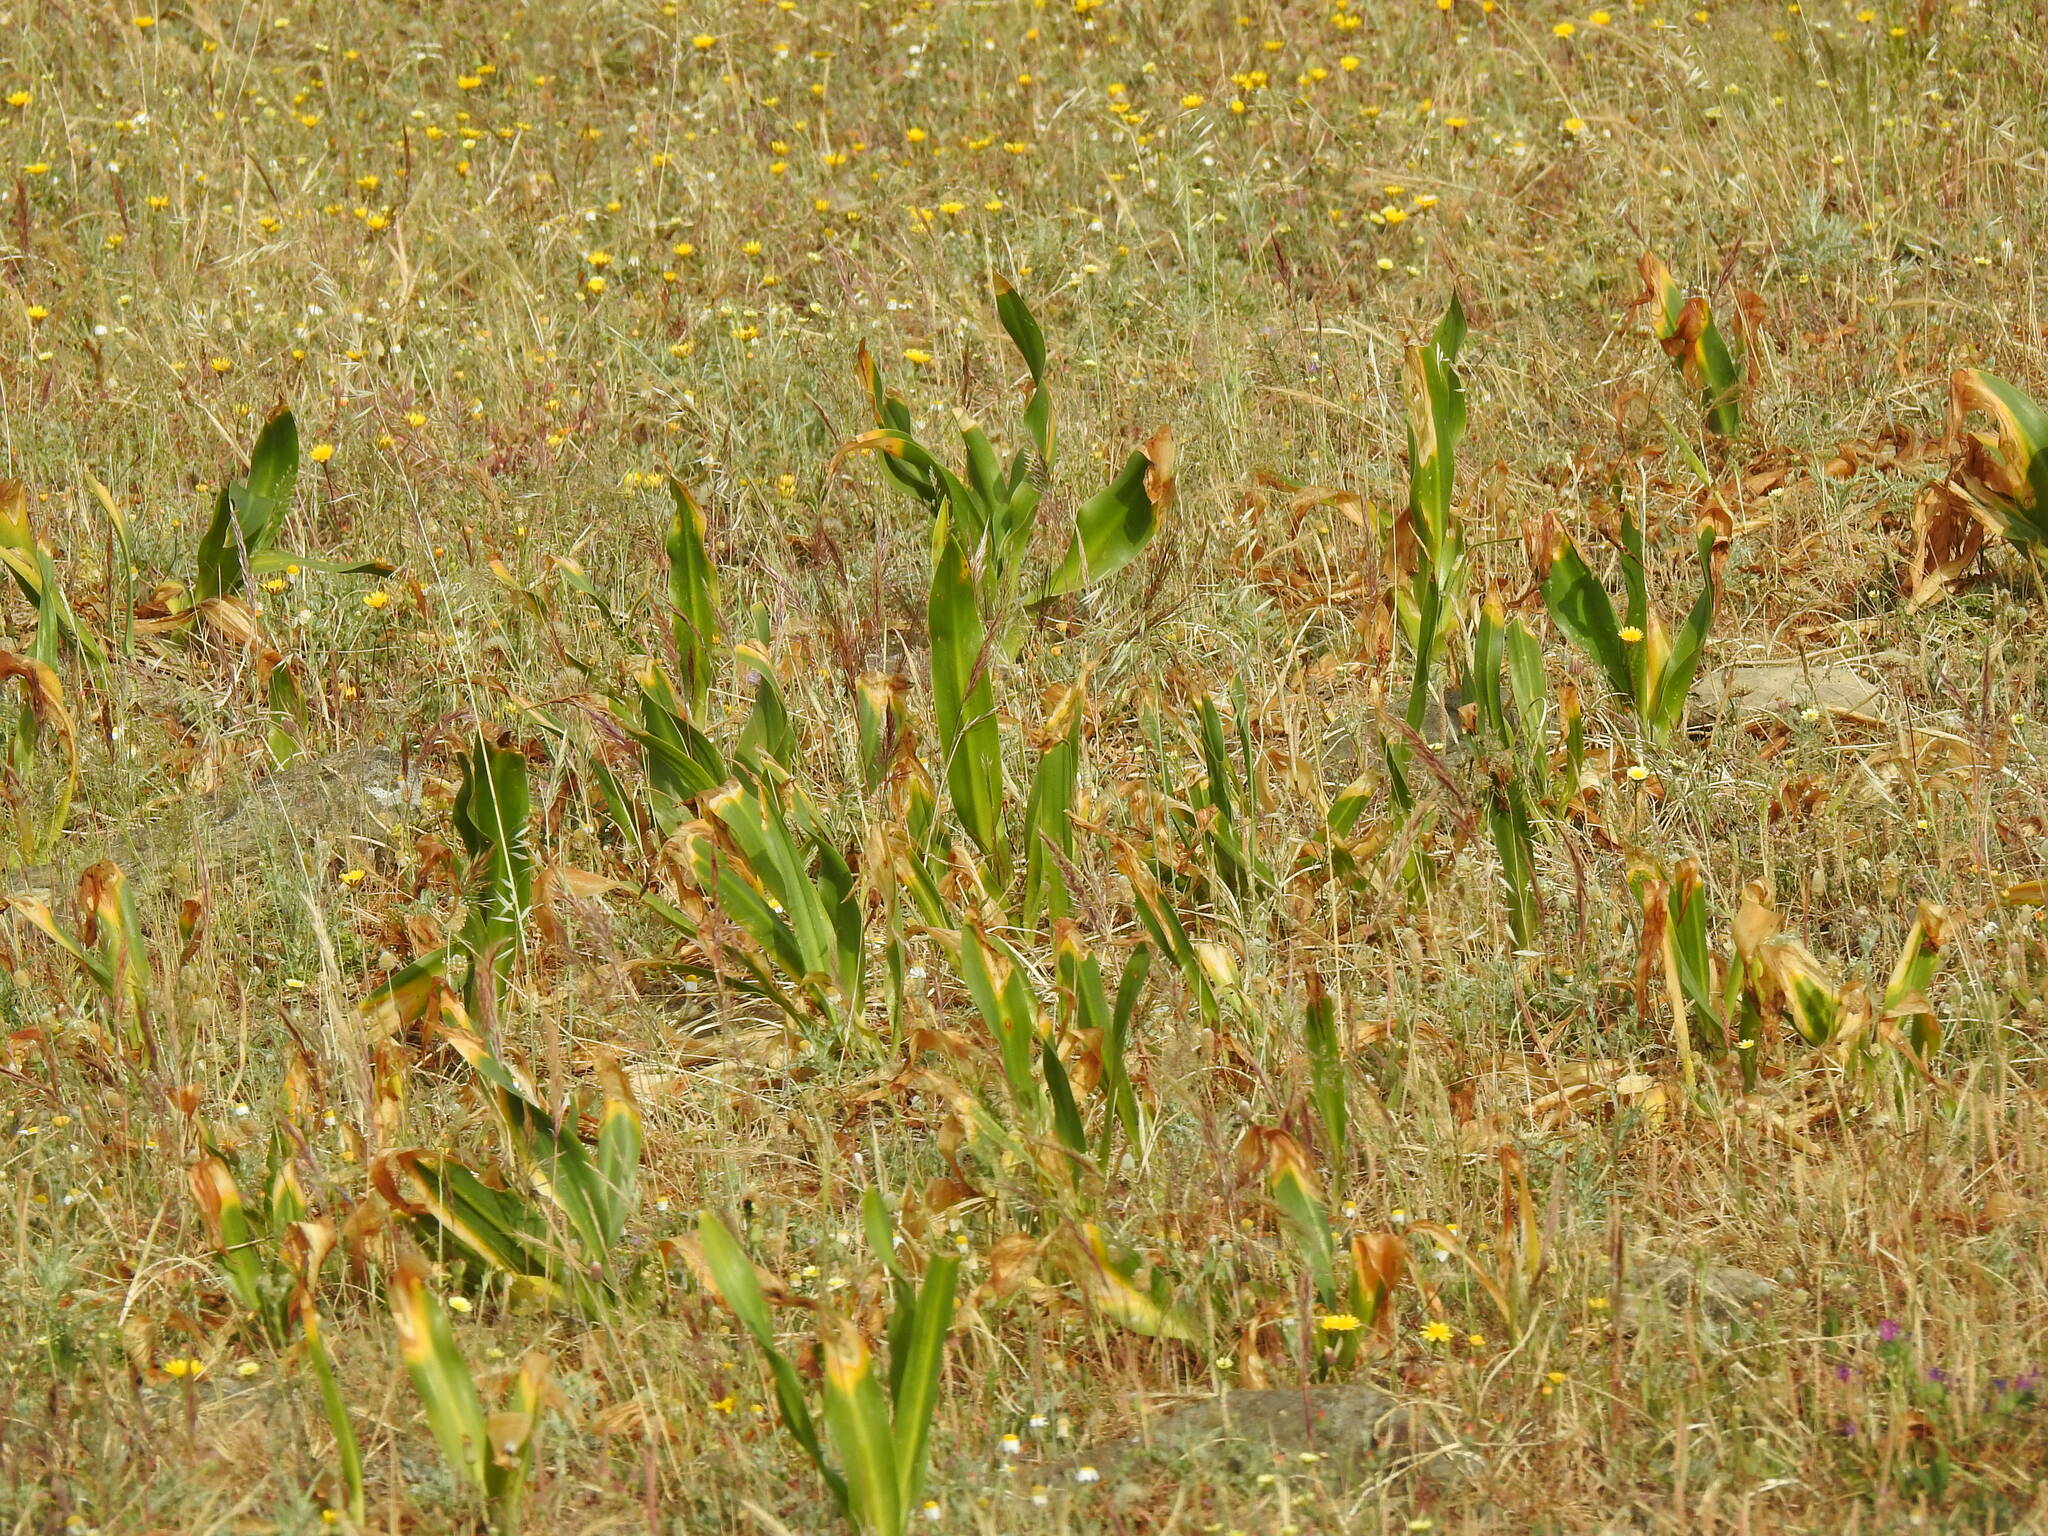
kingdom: Plantae
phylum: Tracheophyta
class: Liliopsida
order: Asparagales
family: Asparagaceae
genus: Drimia
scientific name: Drimia maritima
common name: Maritime squill
